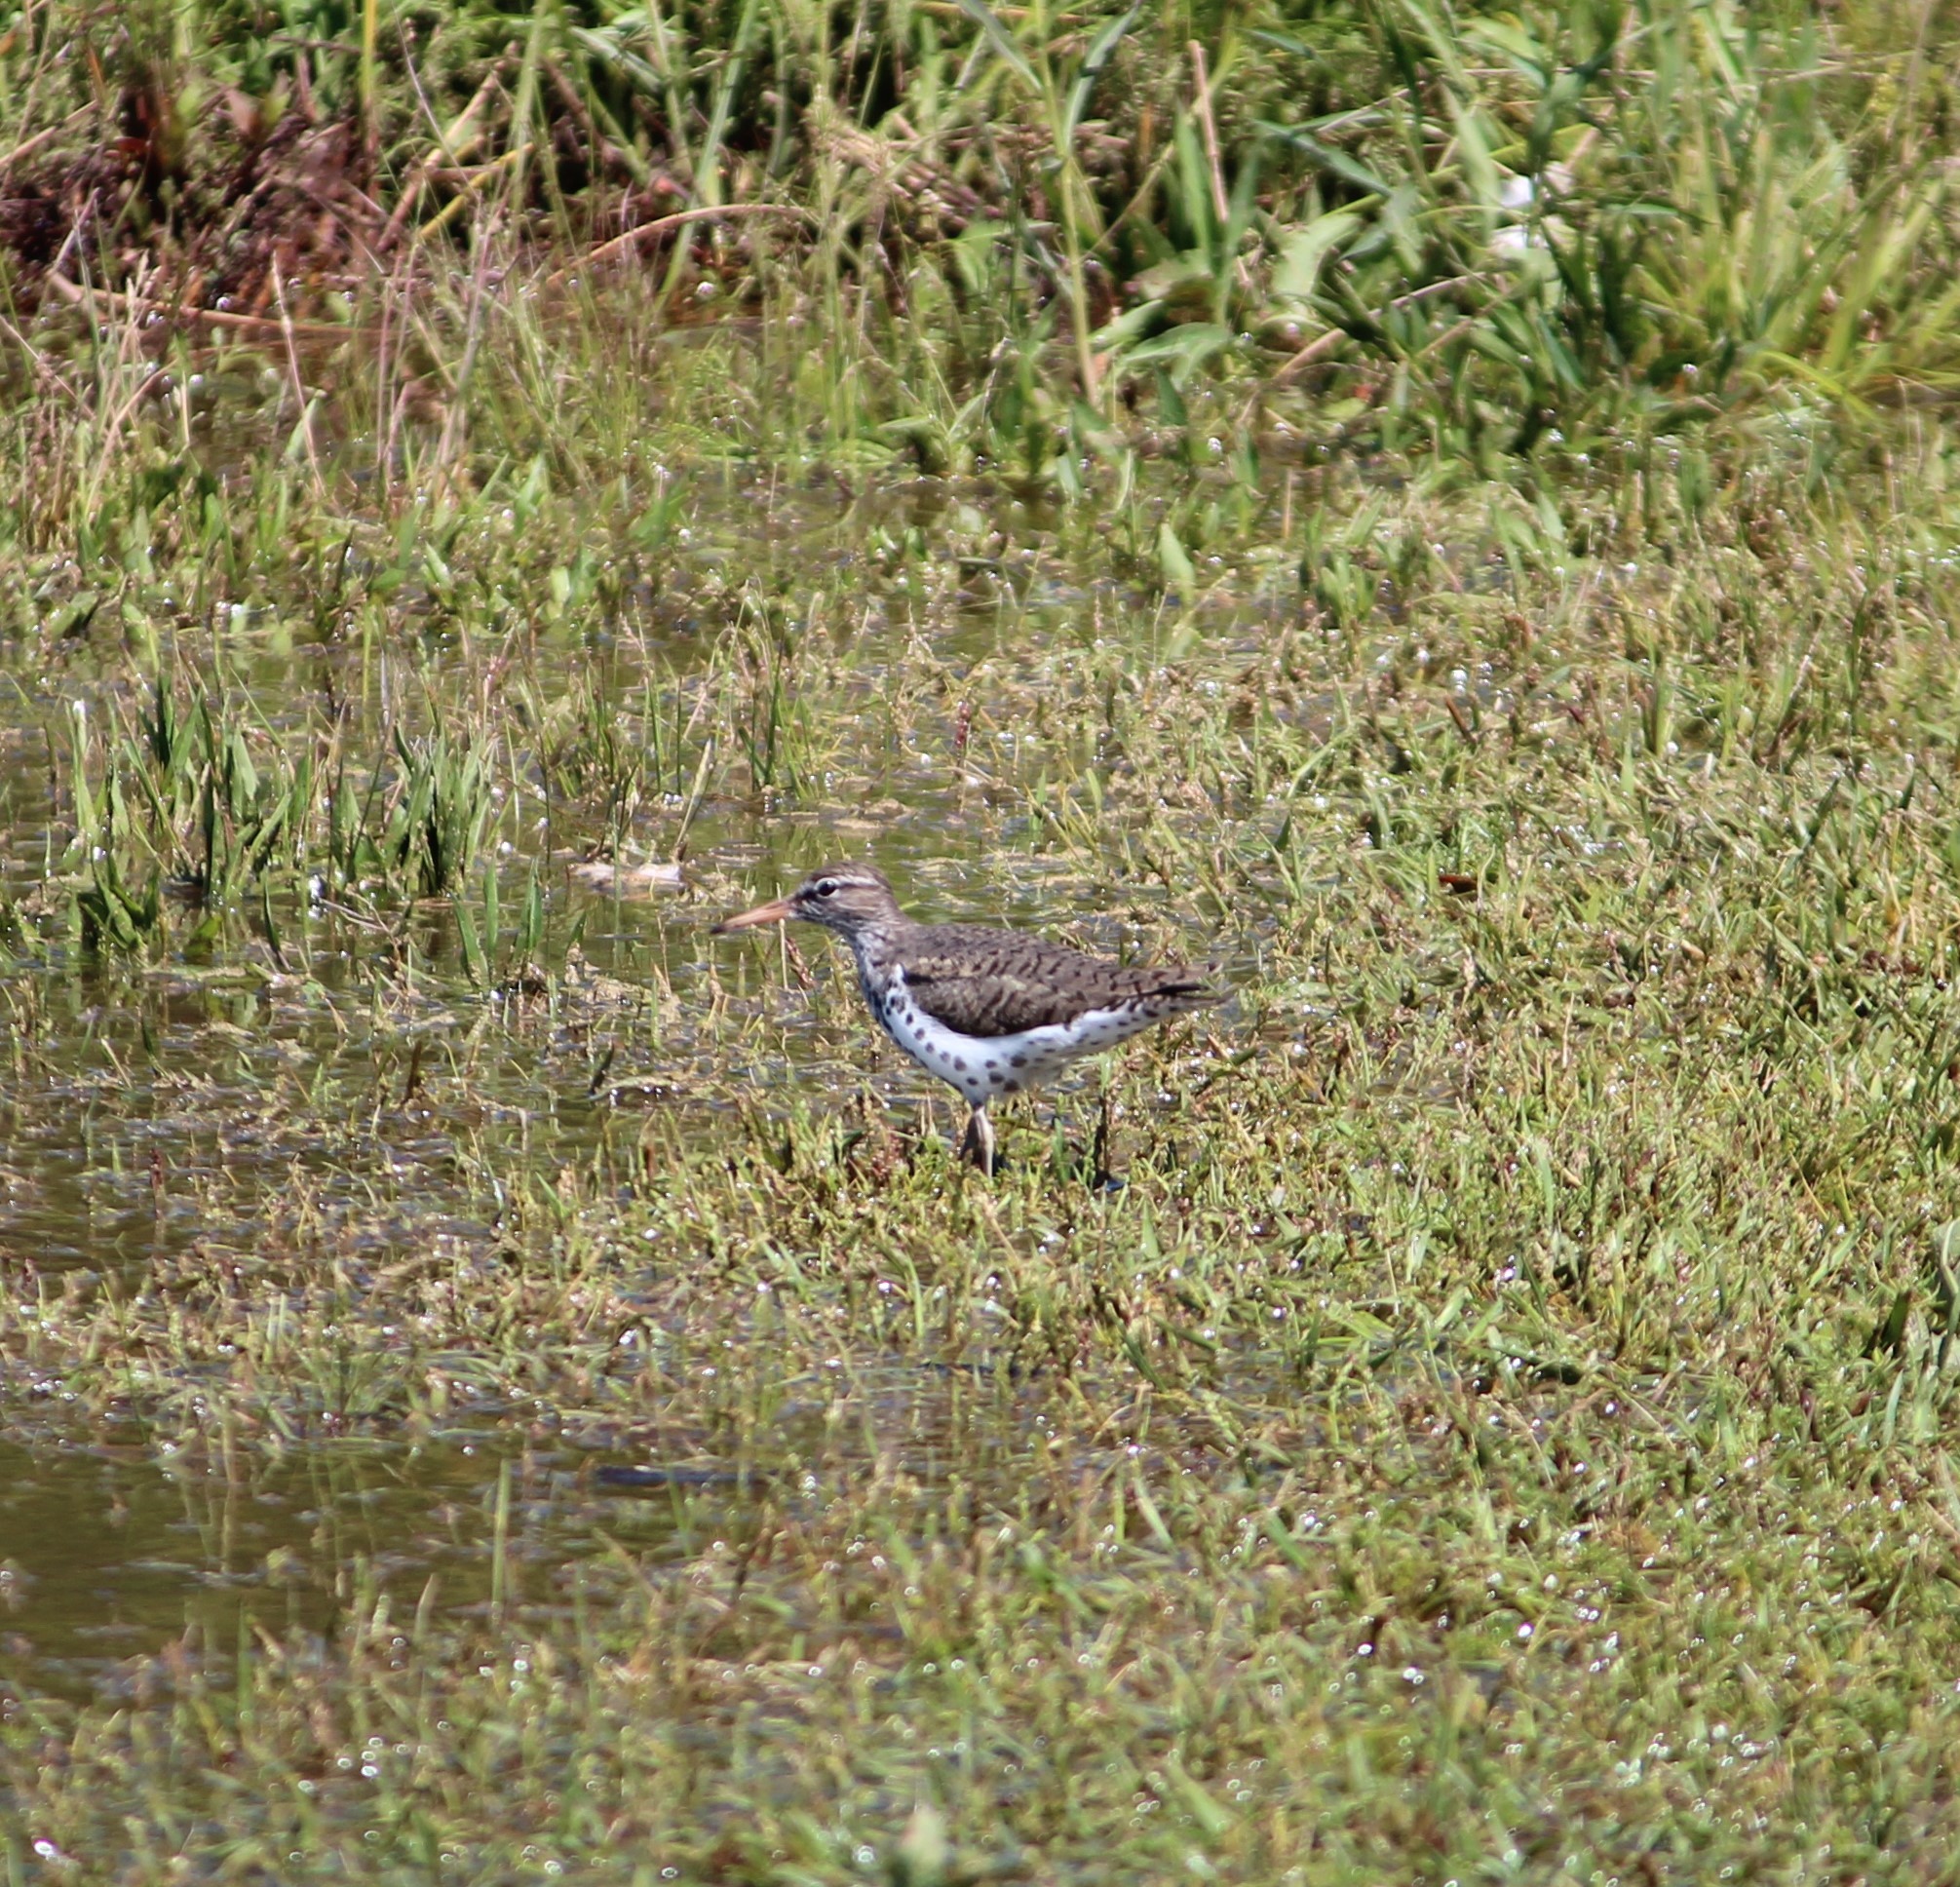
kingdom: Animalia
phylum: Chordata
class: Aves
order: Charadriiformes
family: Scolopacidae
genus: Actitis
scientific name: Actitis macularius
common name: Spotted sandpiper
